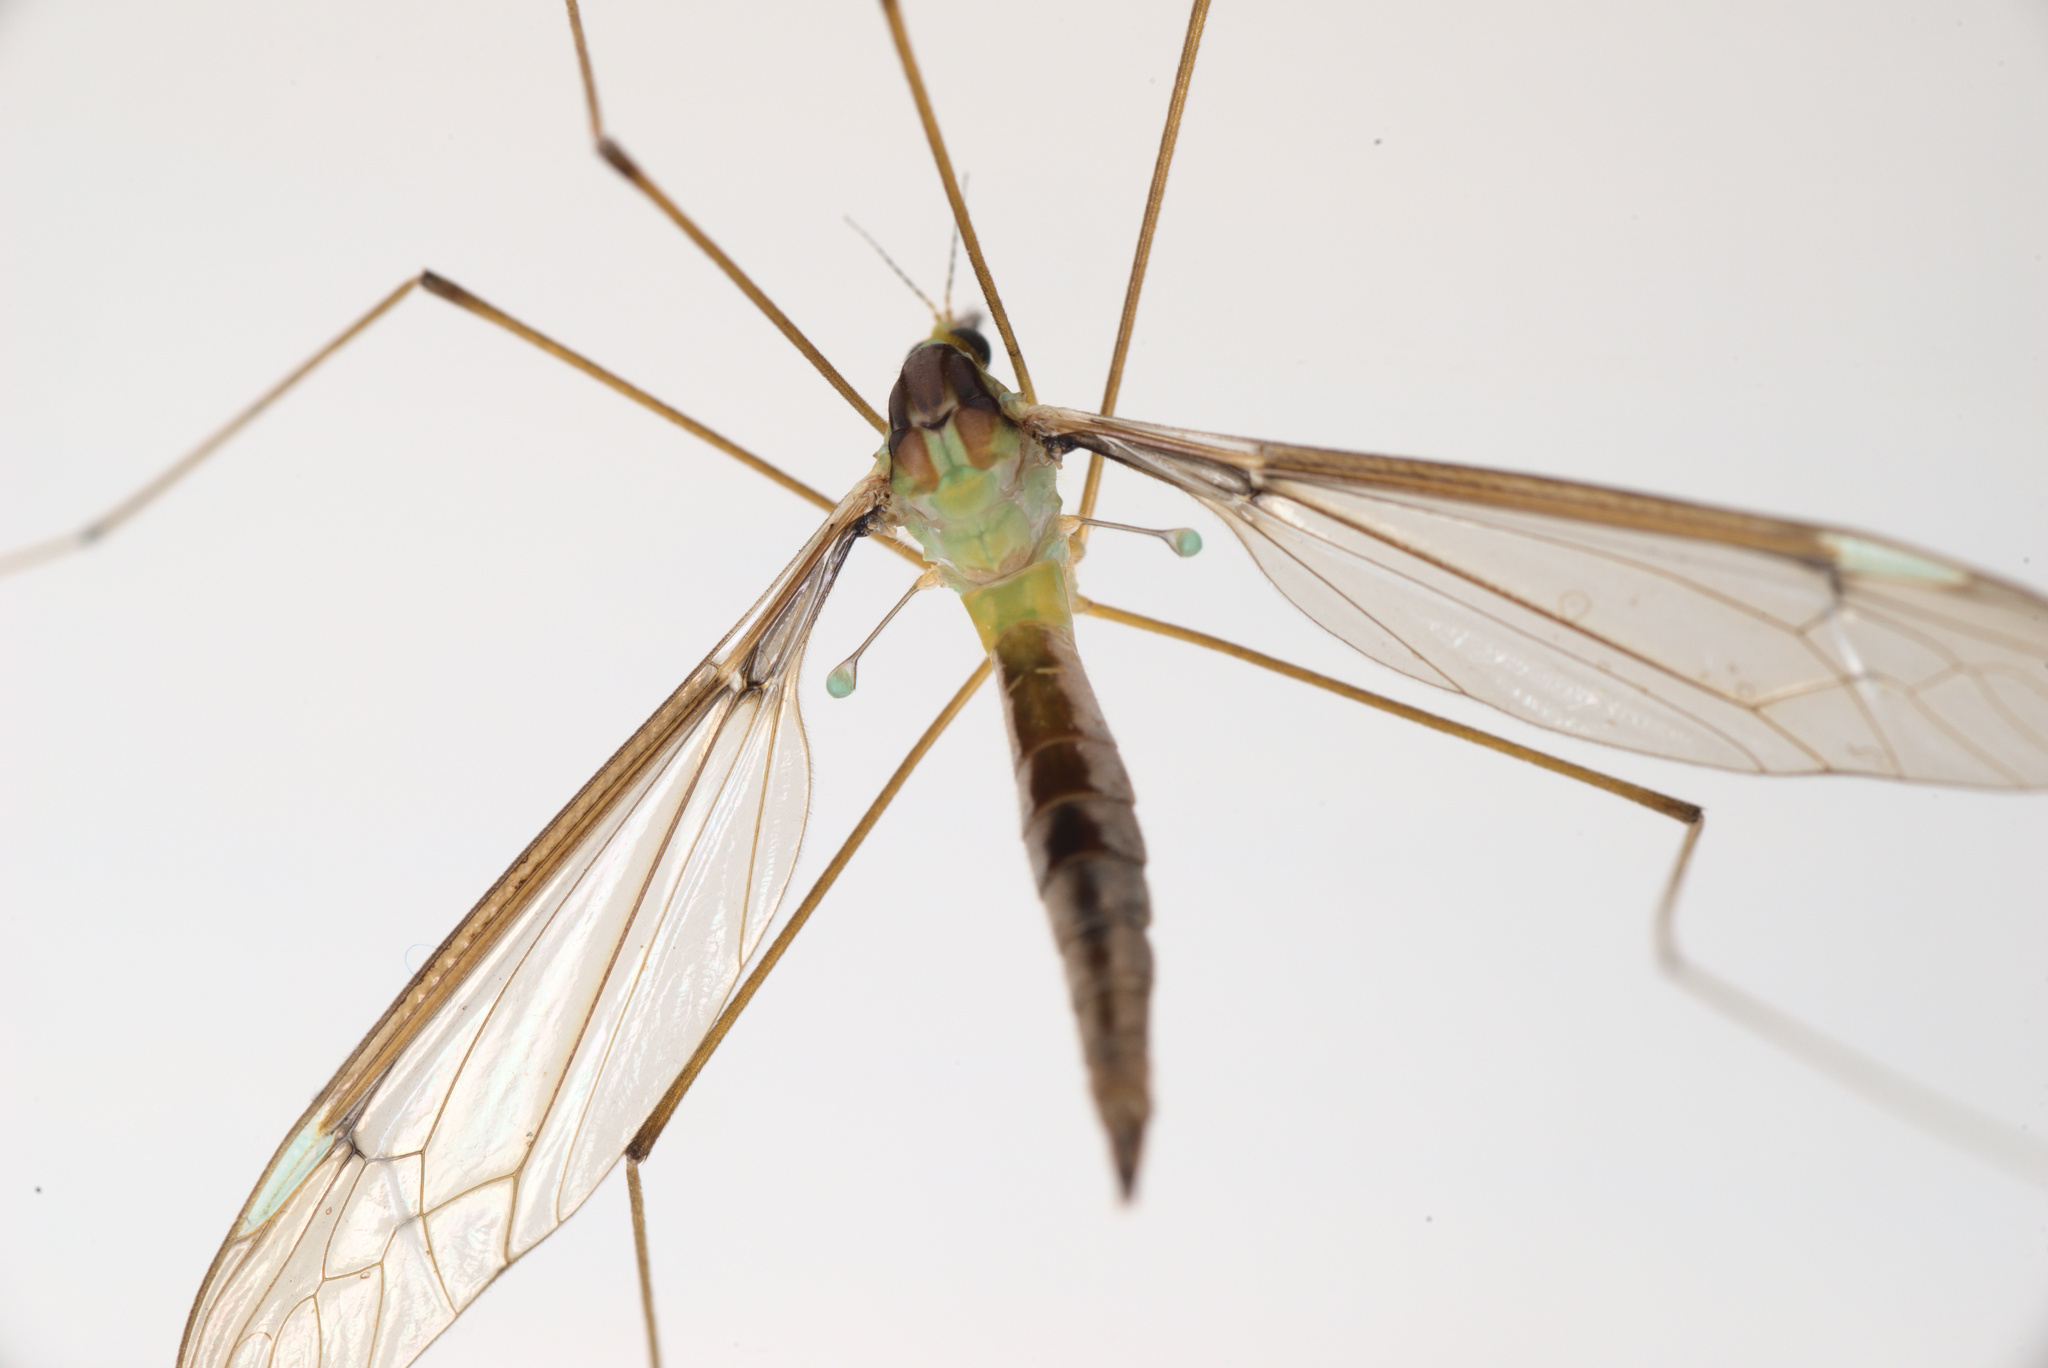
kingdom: Animalia
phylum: Arthropoda
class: Insecta
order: Diptera
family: Tipulidae
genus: Leptotarsus
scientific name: Leptotarsus albistigma
